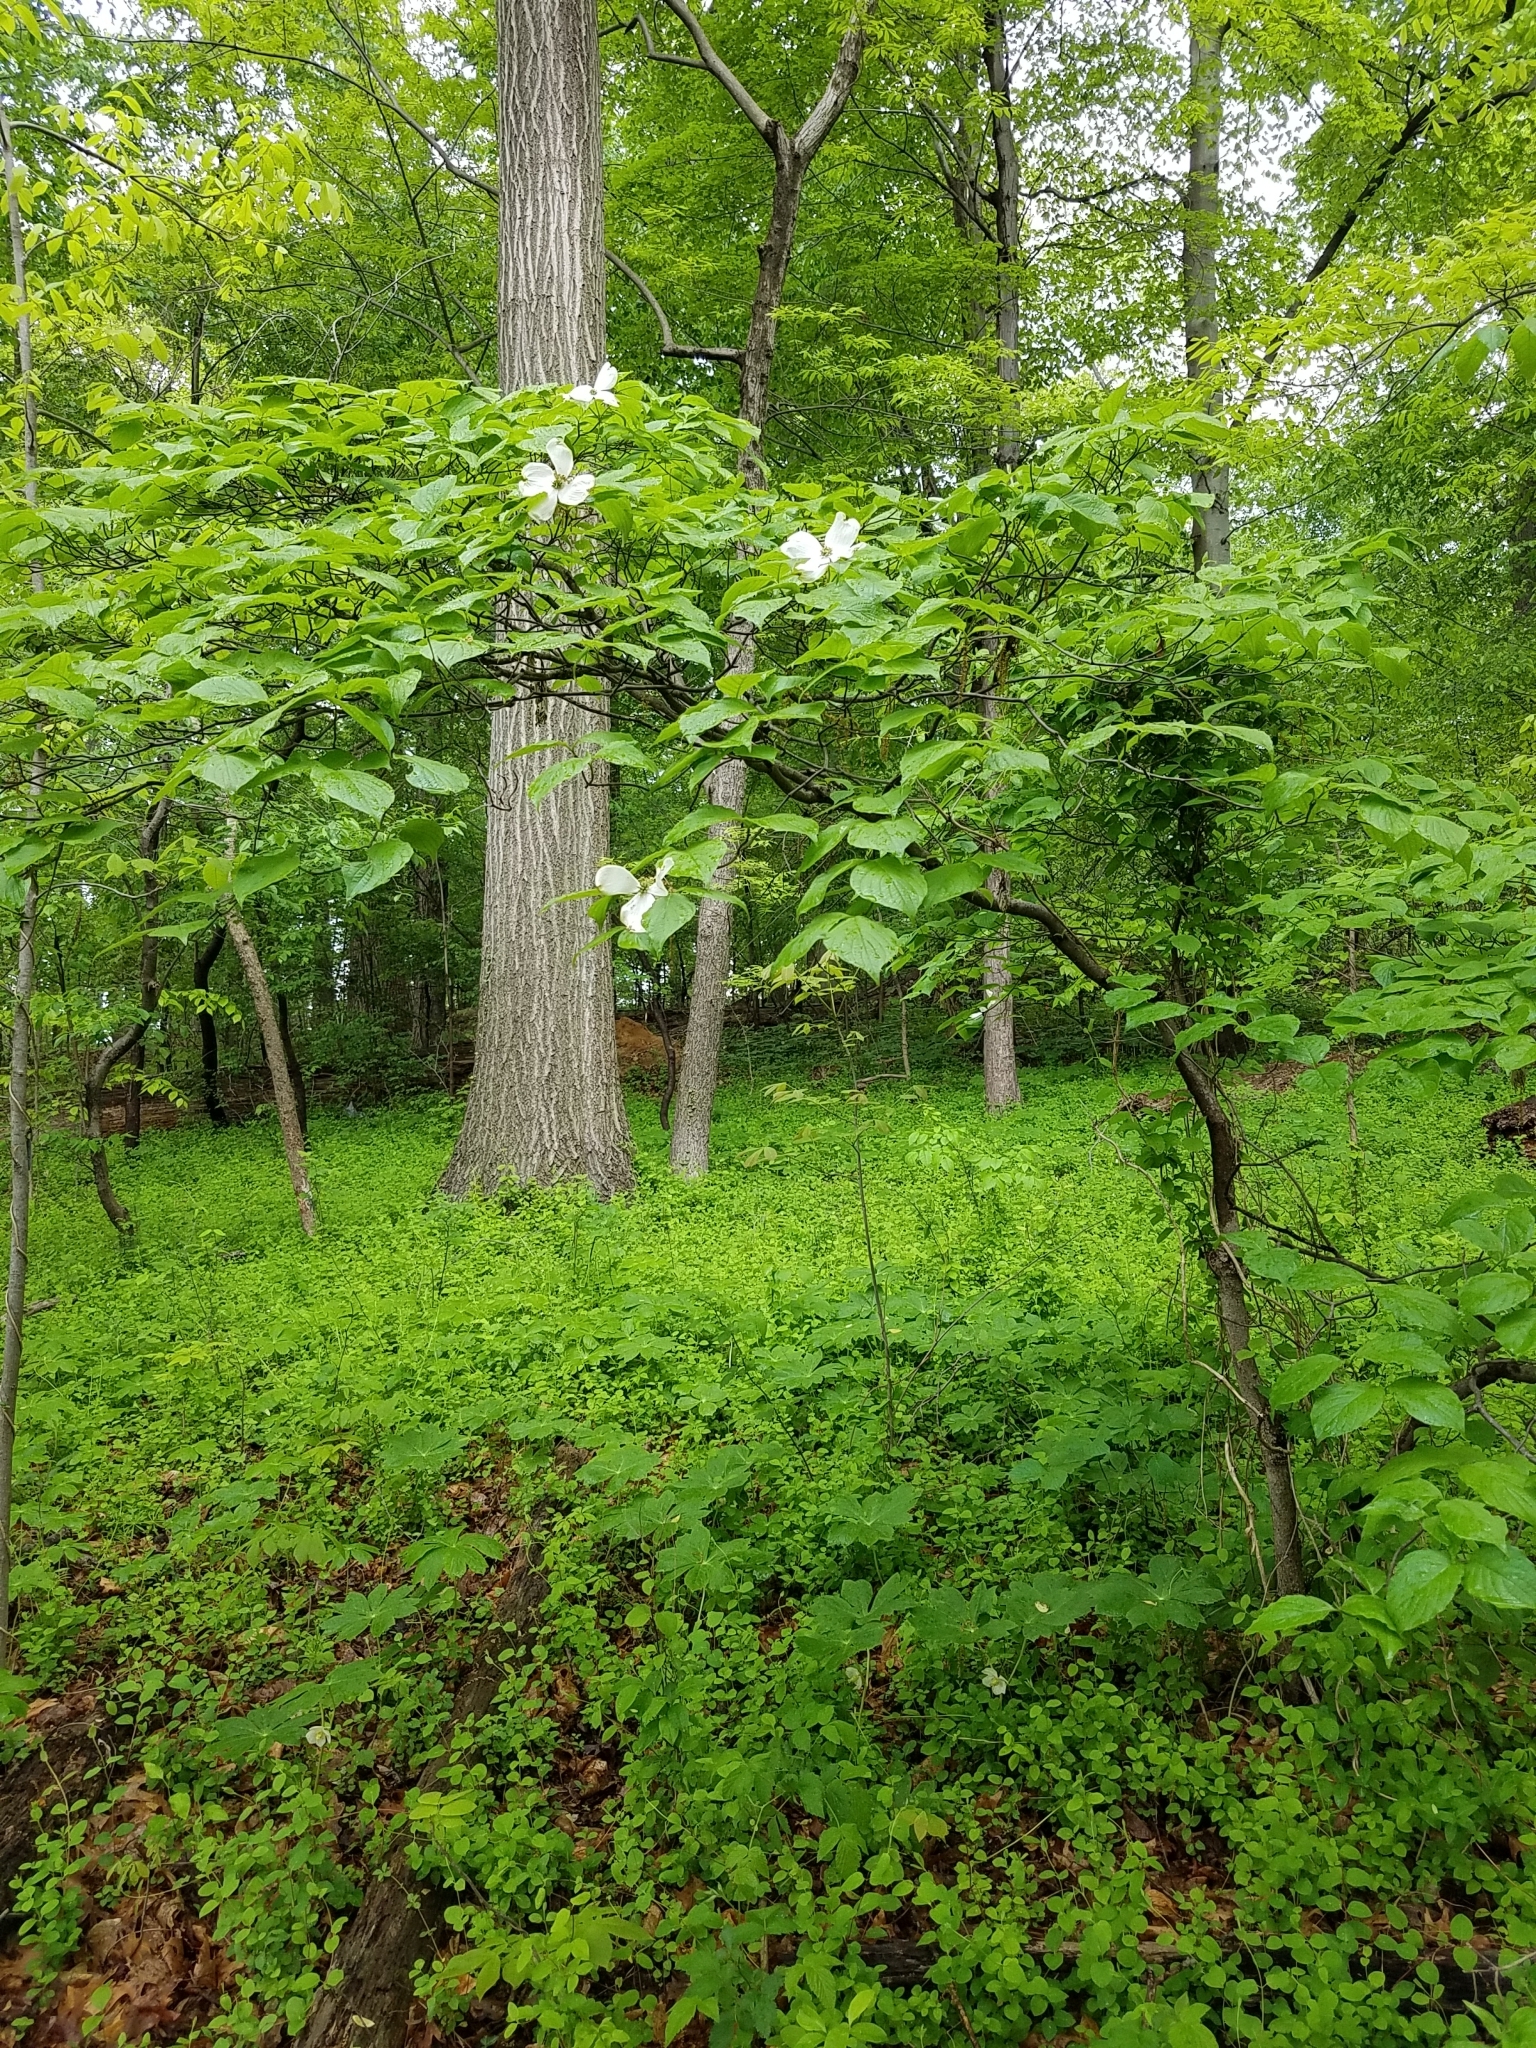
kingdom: Plantae
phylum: Tracheophyta
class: Magnoliopsida
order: Cornales
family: Cornaceae
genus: Cornus
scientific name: Cornus florida
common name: Flowering dogwood
